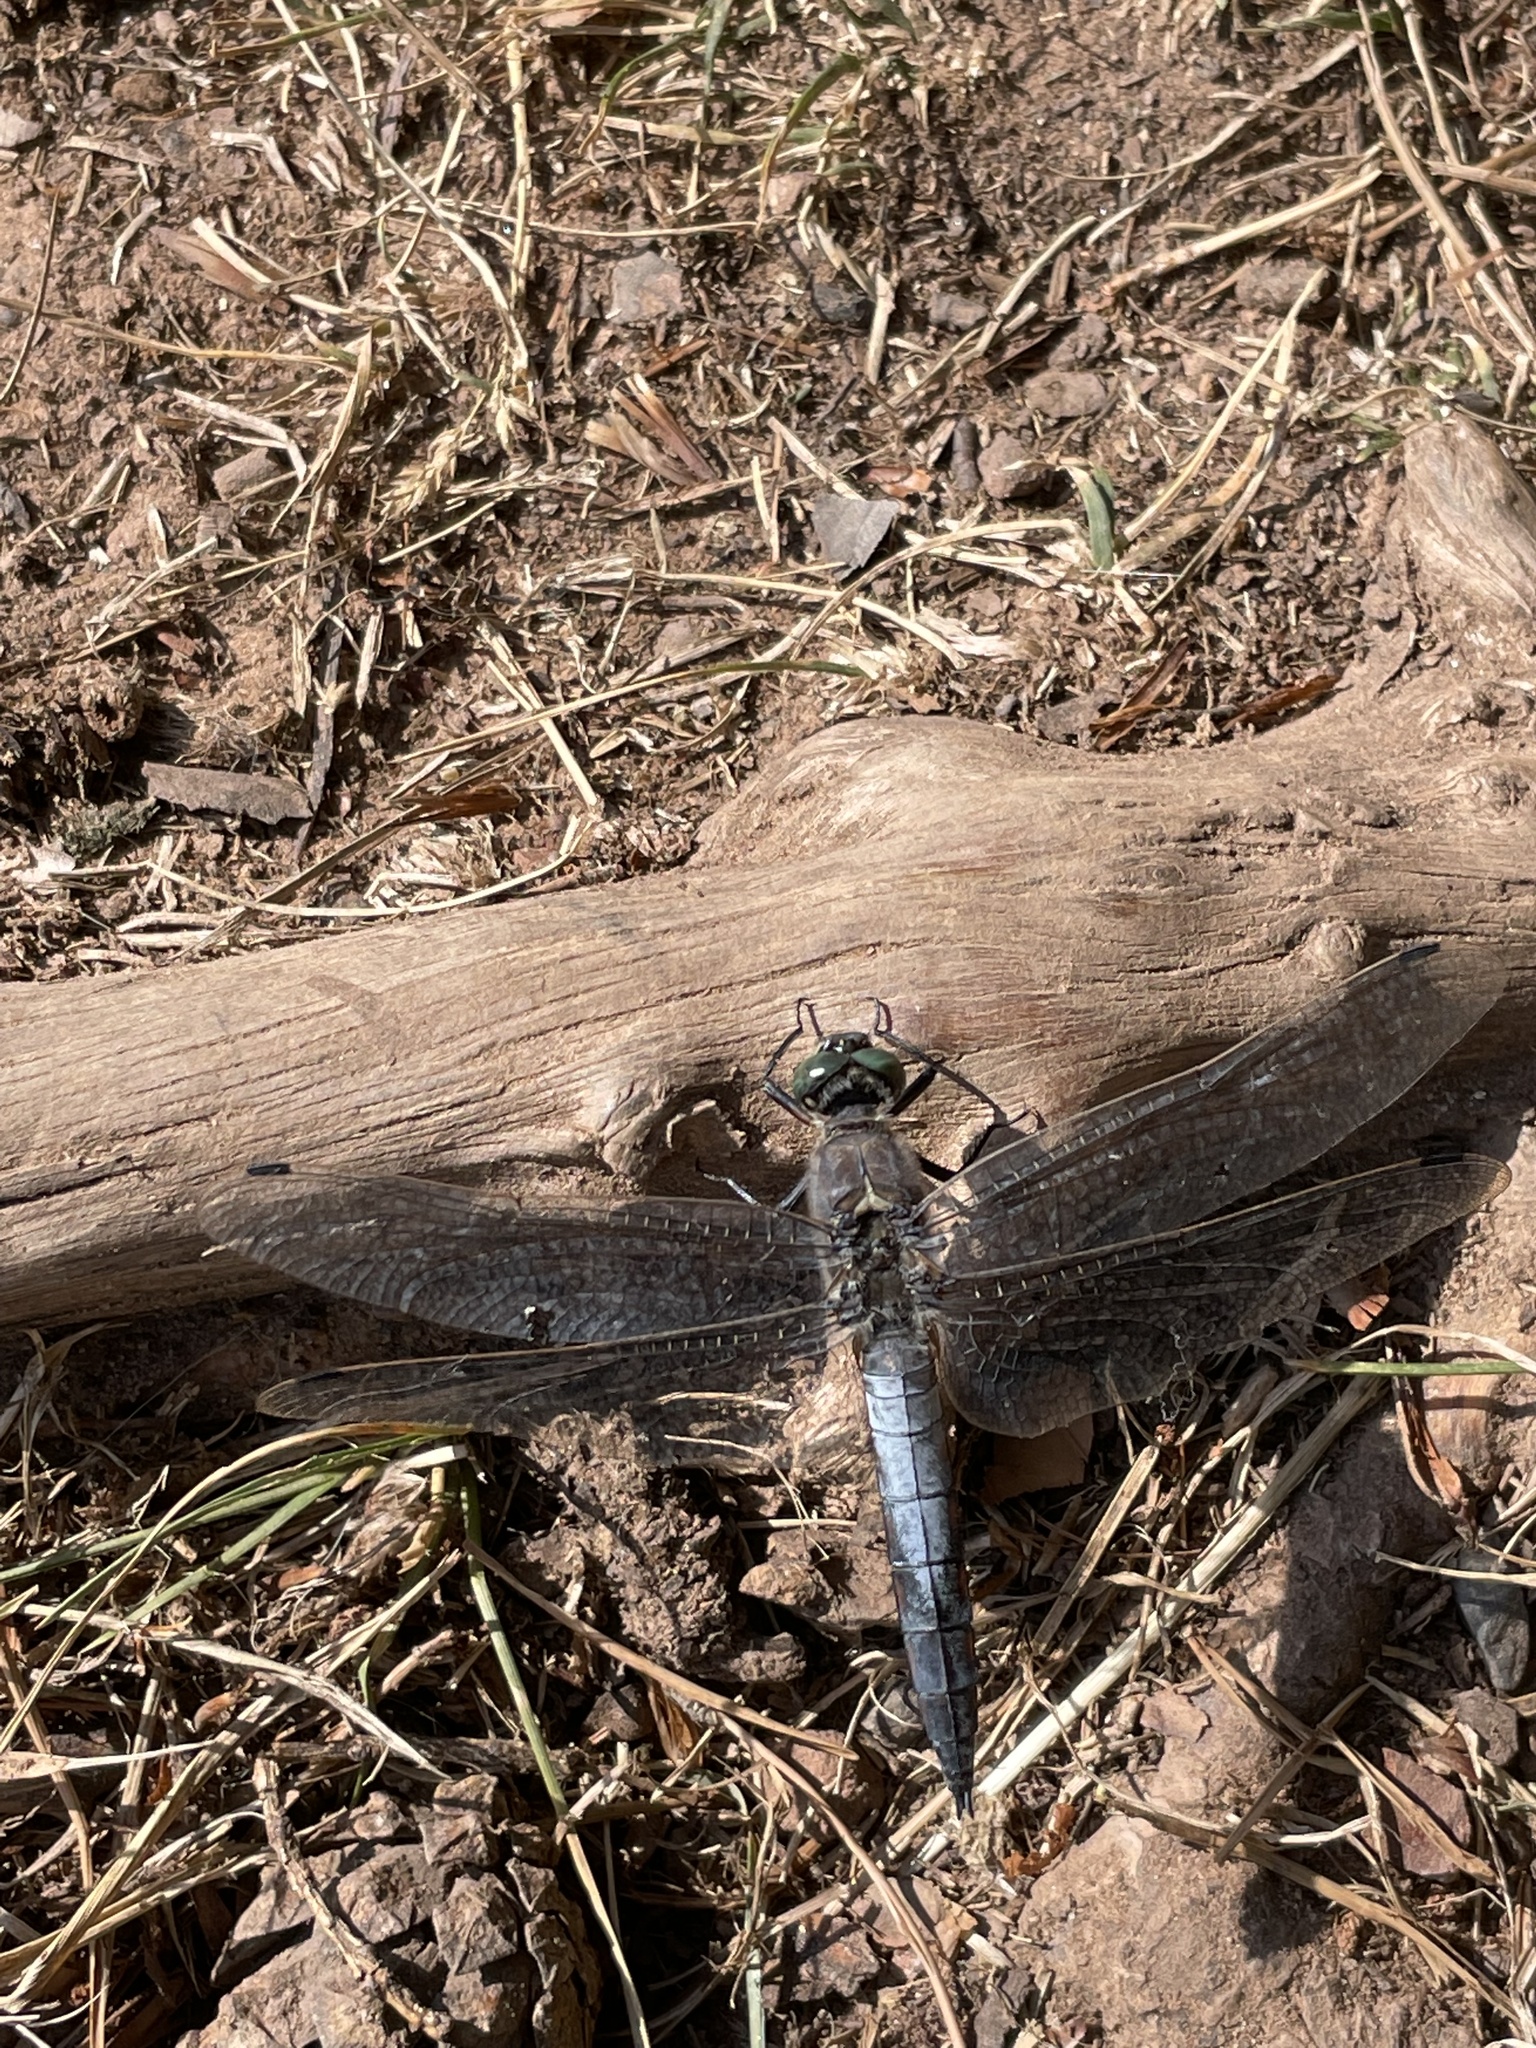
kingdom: Animalia
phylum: Arthropoda
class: Insecta
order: Odonata
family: Libellulidae
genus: Orthetrum
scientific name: Orthetrum cancellatum
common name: Black-tailed skimmer
